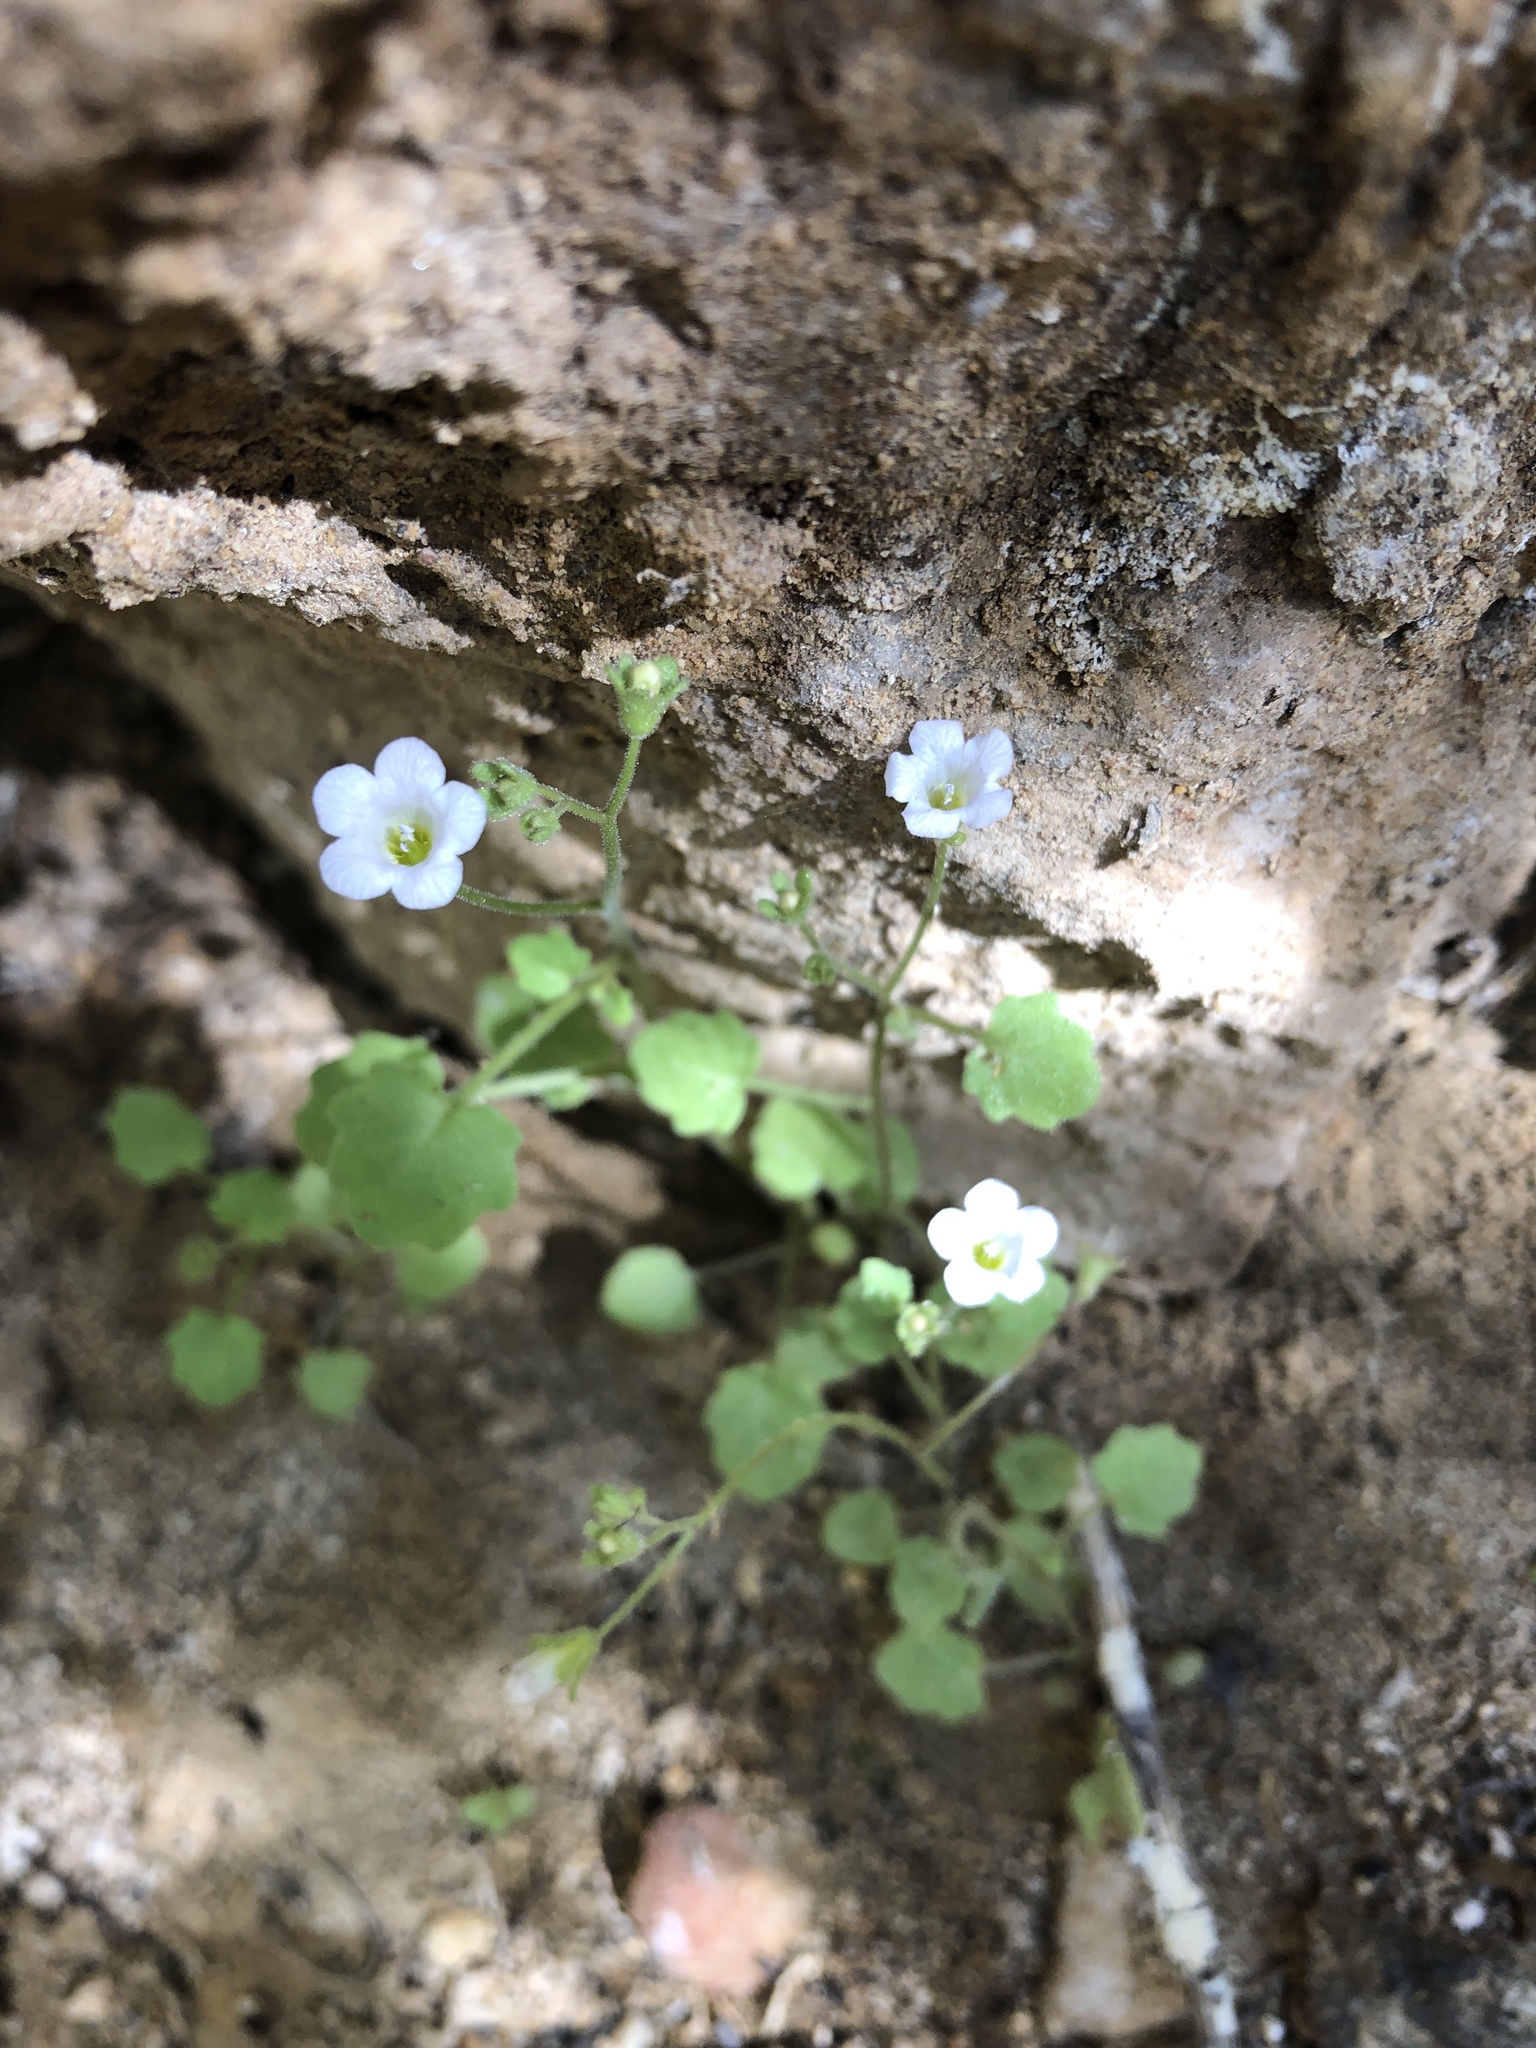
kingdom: Plantae
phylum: Tracheophyta
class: Magnoliopsida
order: Boraginales
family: Hydrophyllaceae
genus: Phacelia
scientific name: Phacelia rotundifolia
